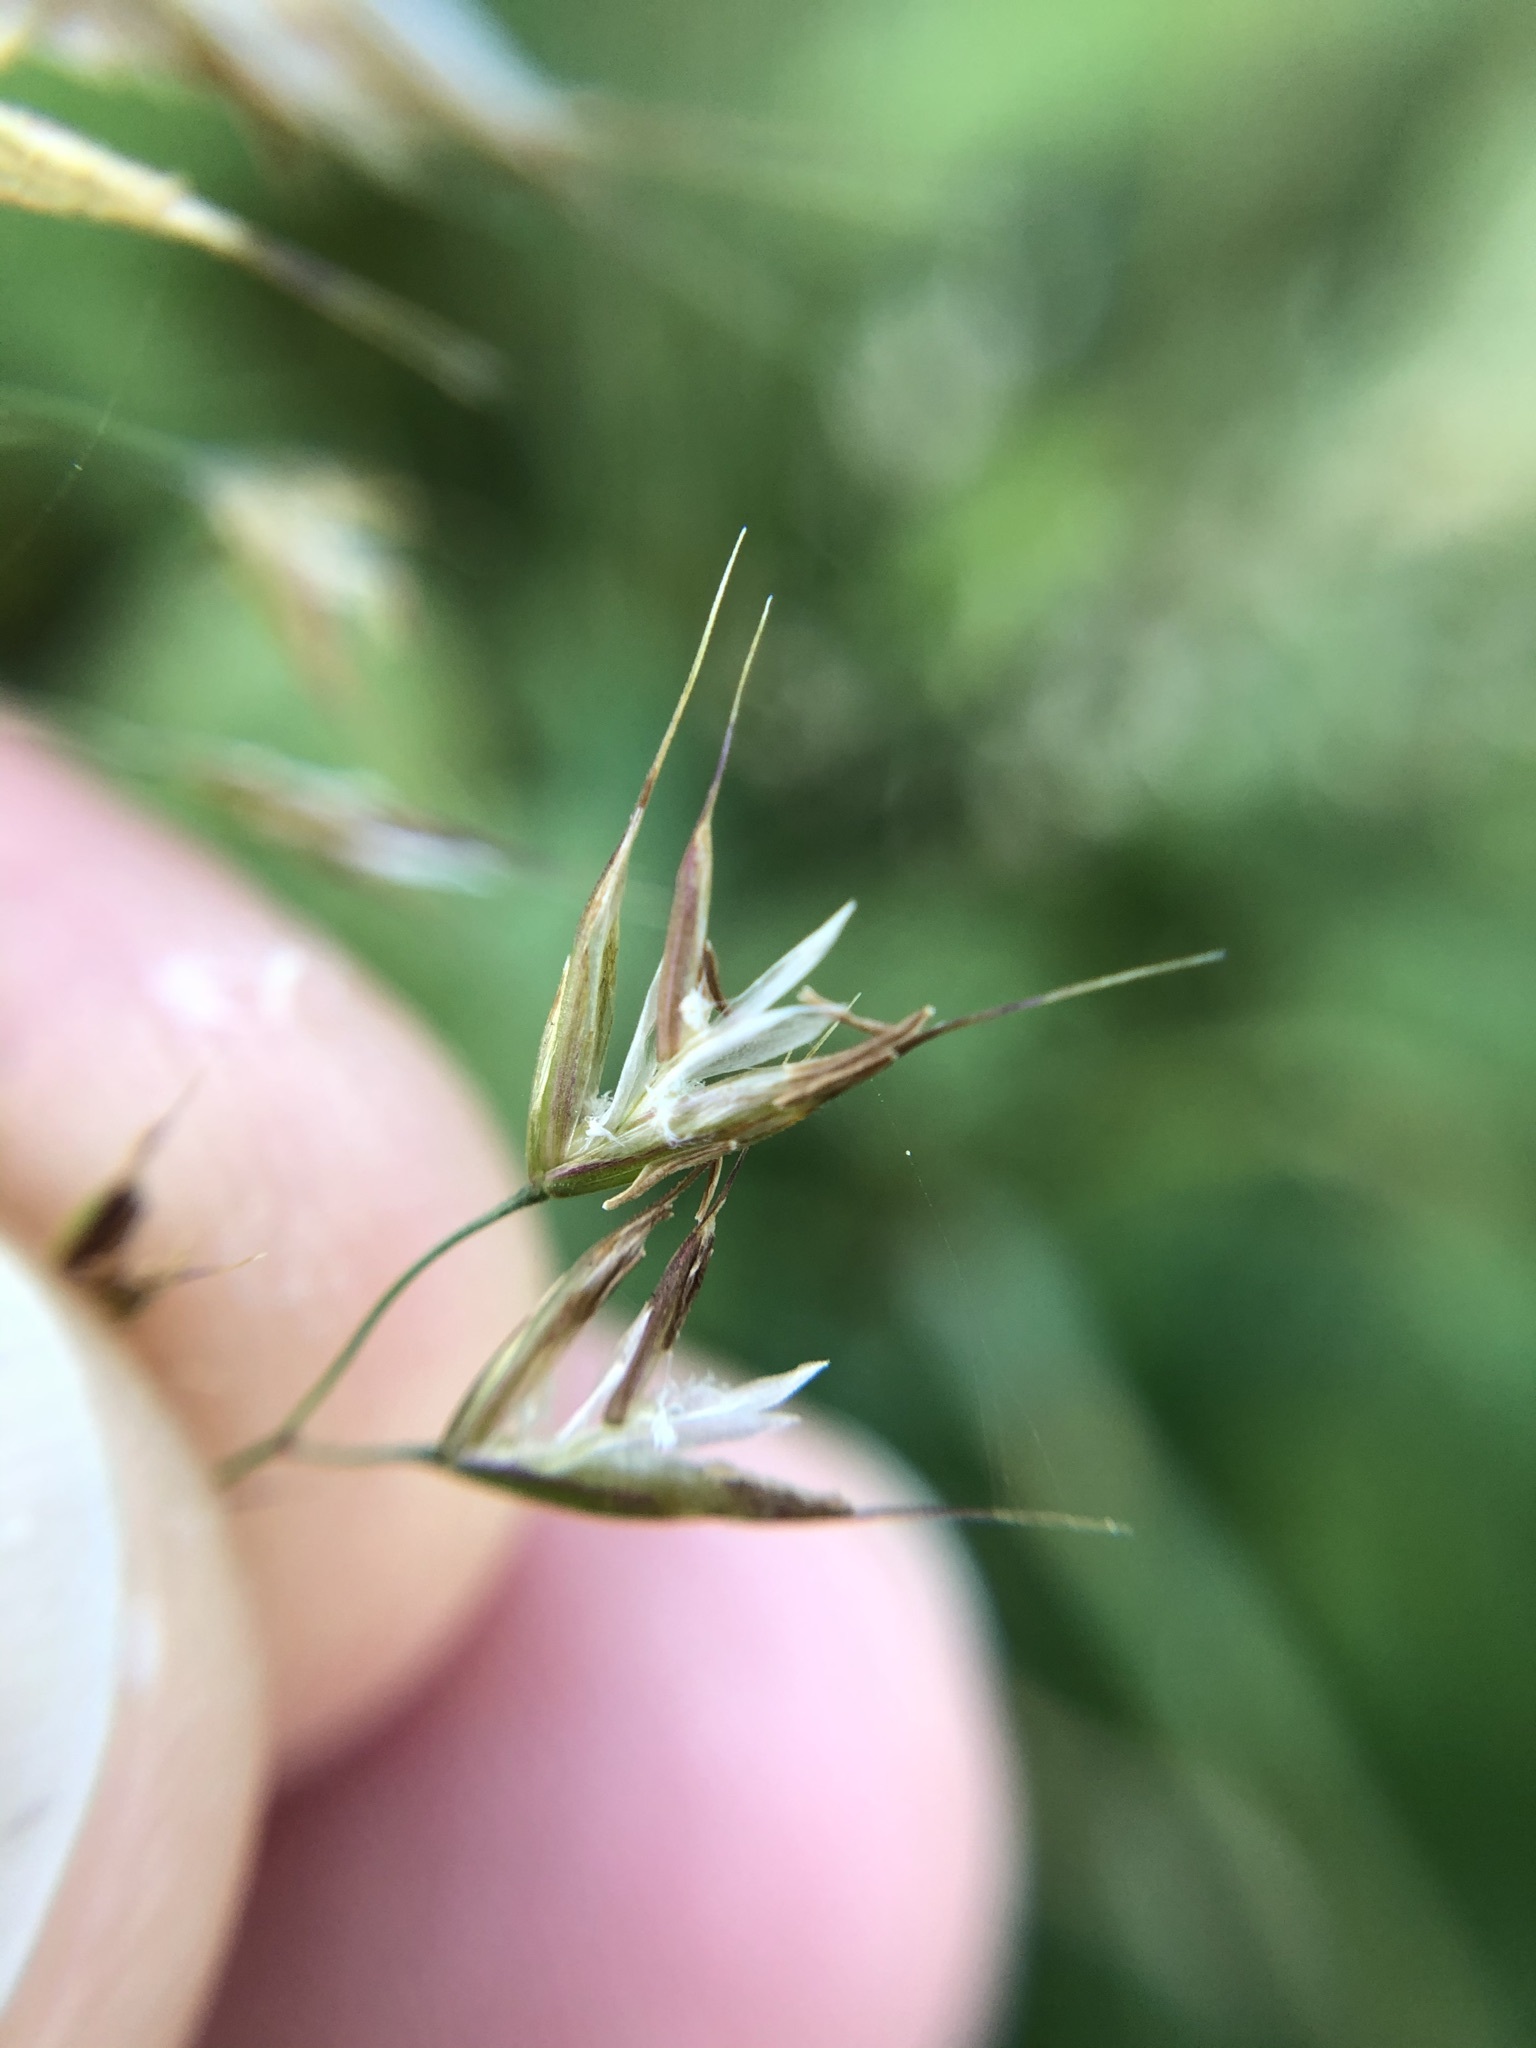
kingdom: Plantae
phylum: Tracheophyta
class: Liliopsida
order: Poales
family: Poaceae
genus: Trisetum
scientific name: Trisetum flavescens
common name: Yellow oat-grass
